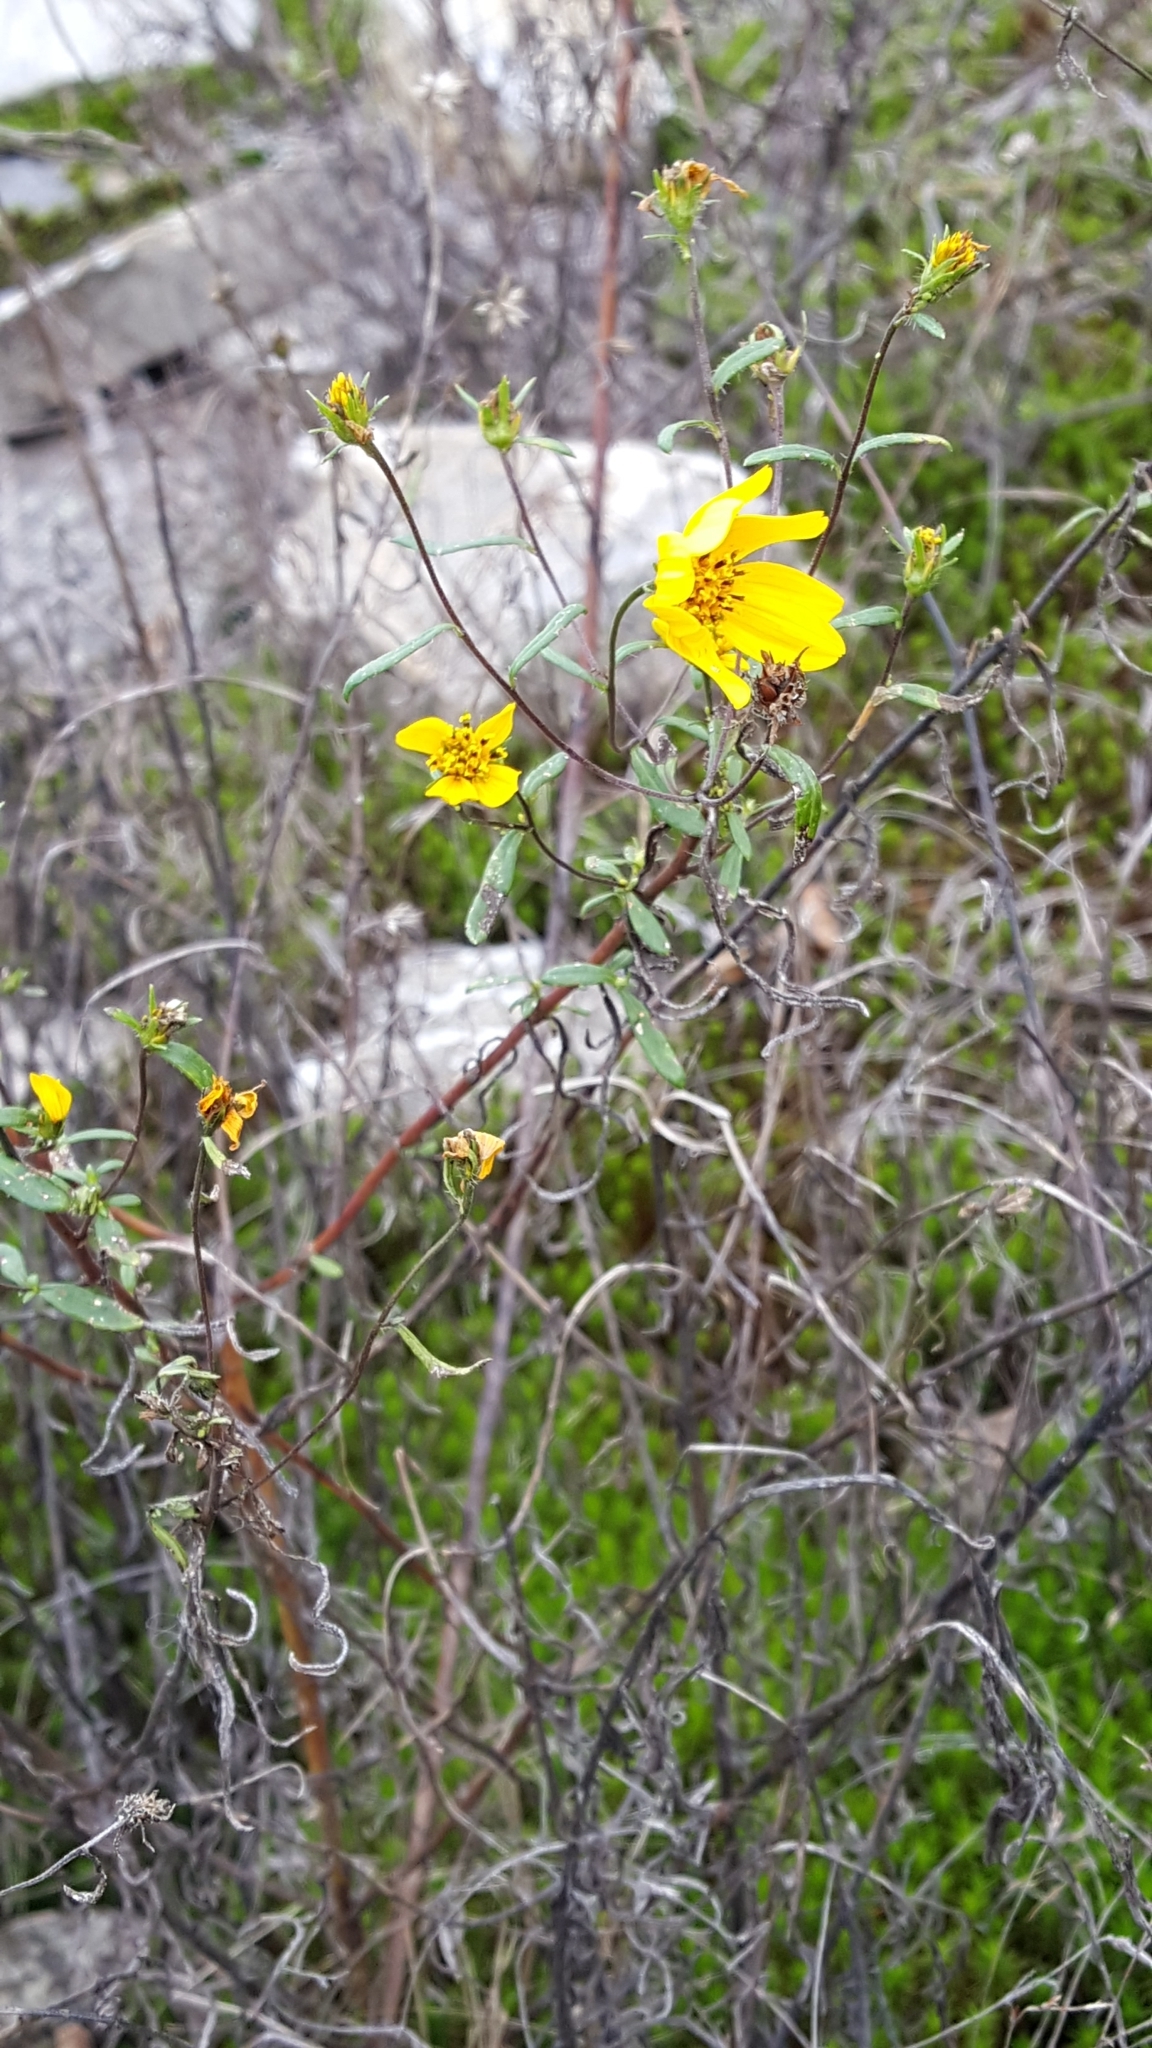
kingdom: Plantae
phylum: Tracheophyta
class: Magnoliopsida
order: Asterales
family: Asteraceae
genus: Helianthus
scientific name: Helianthus porteri
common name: Porter's sunflower
